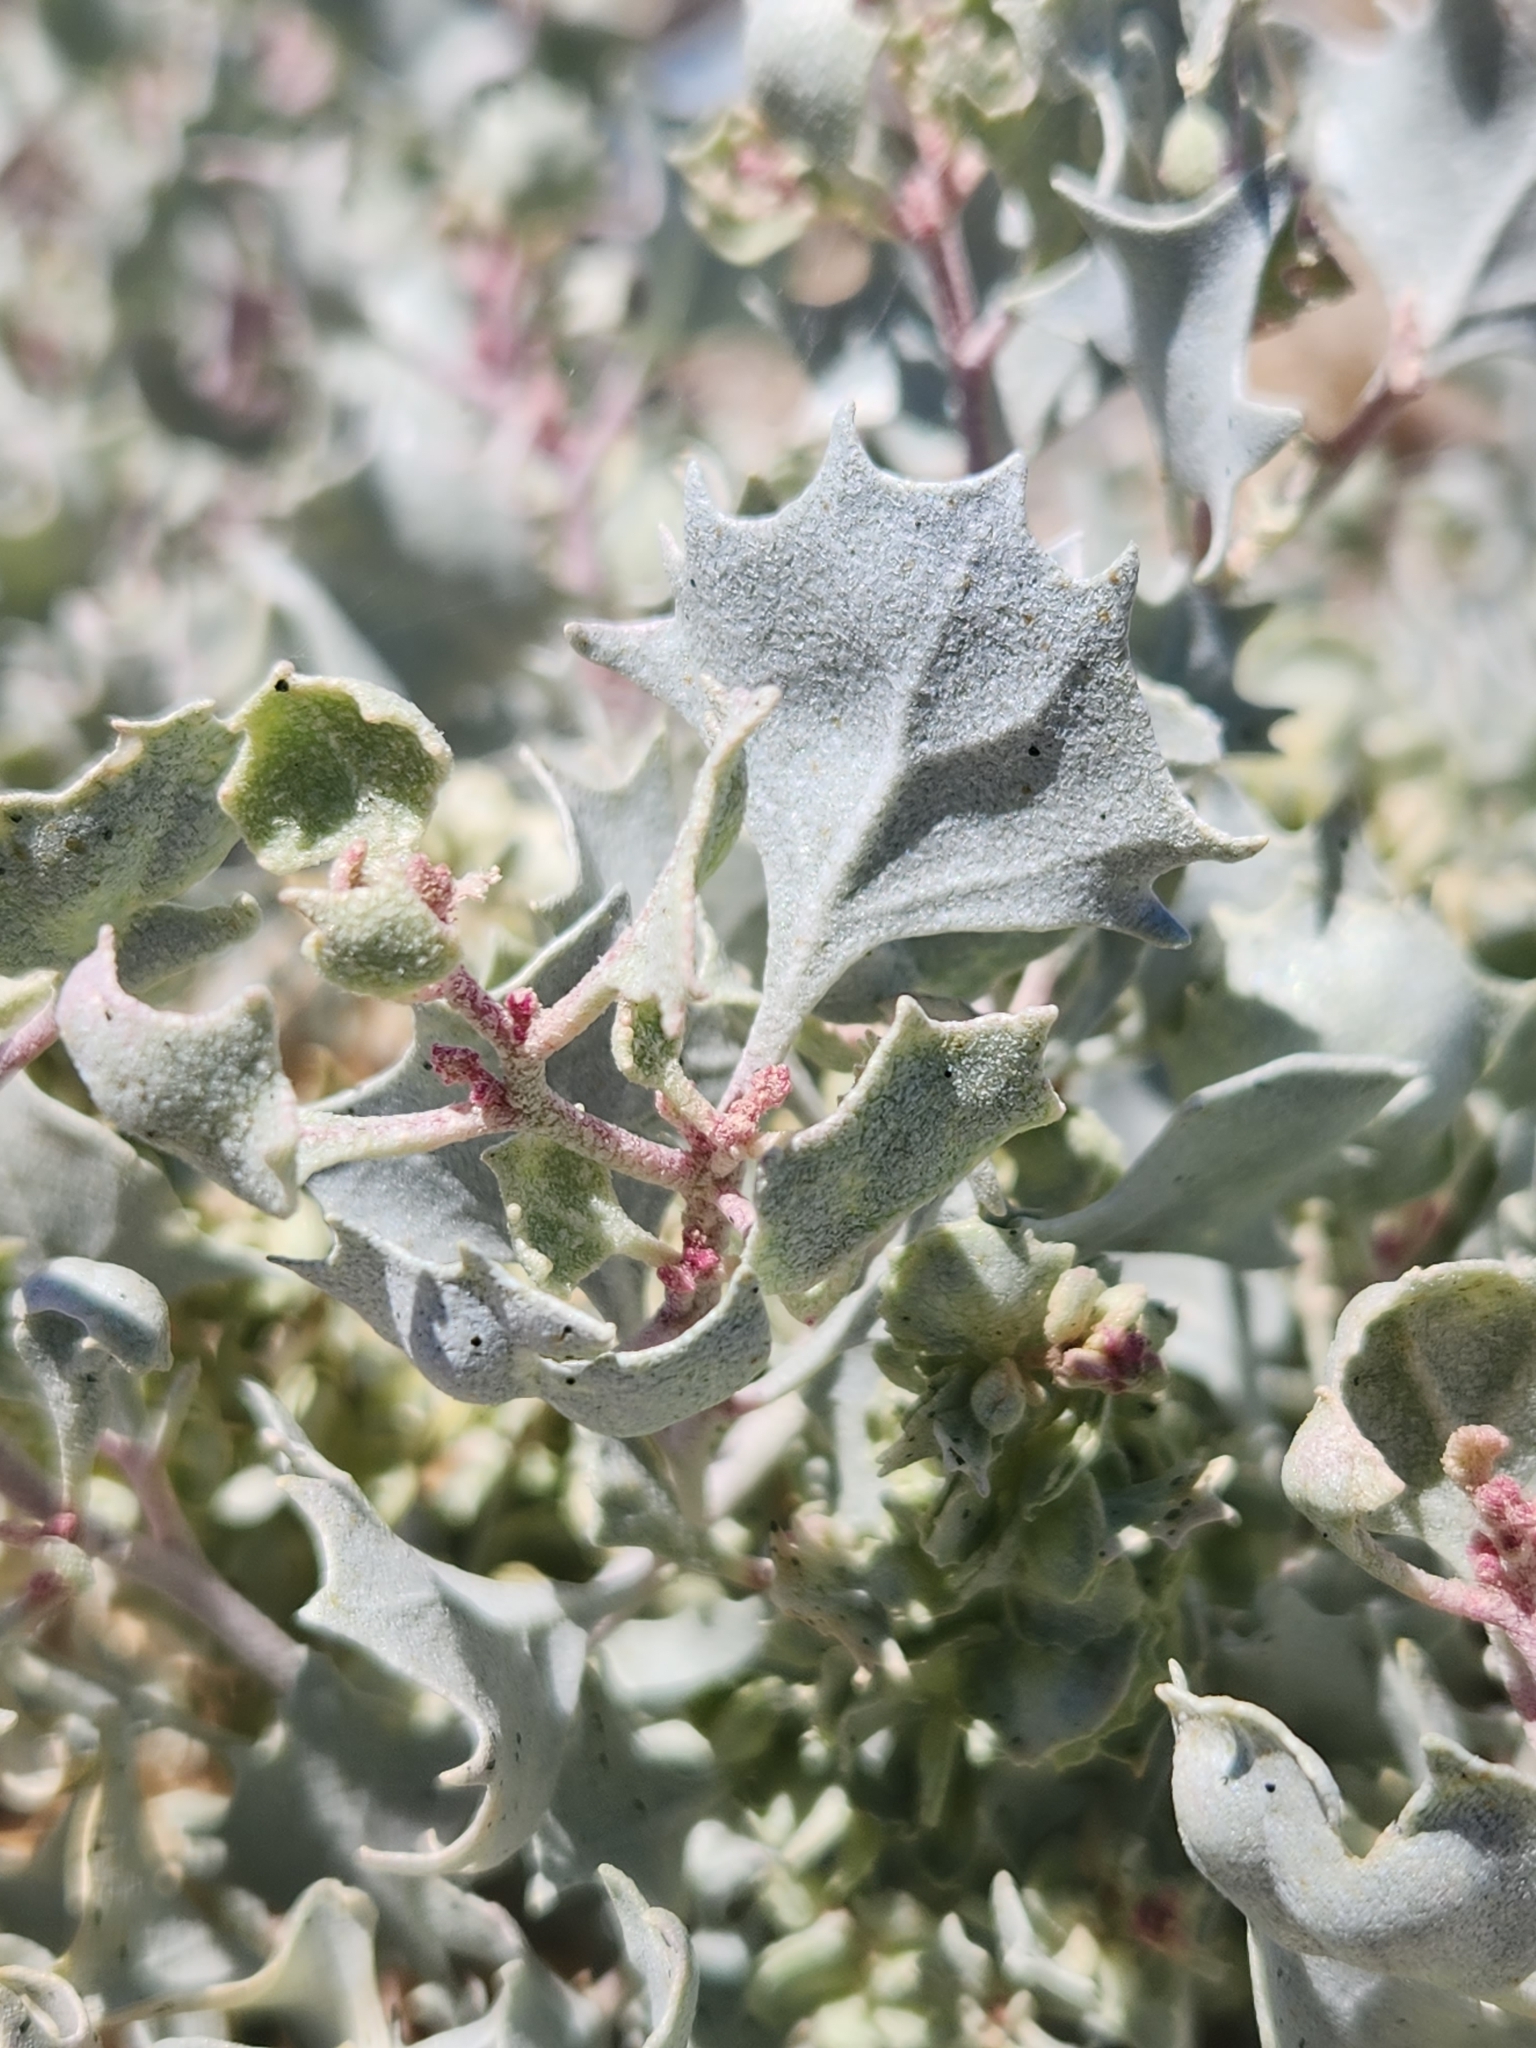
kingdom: Plantae
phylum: Tracheophyta
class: Magnoliopsida
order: Caryophyllales
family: Amaranthaceae
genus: Atriplex
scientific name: Atriplex hymenelytra
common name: Desert-holly
